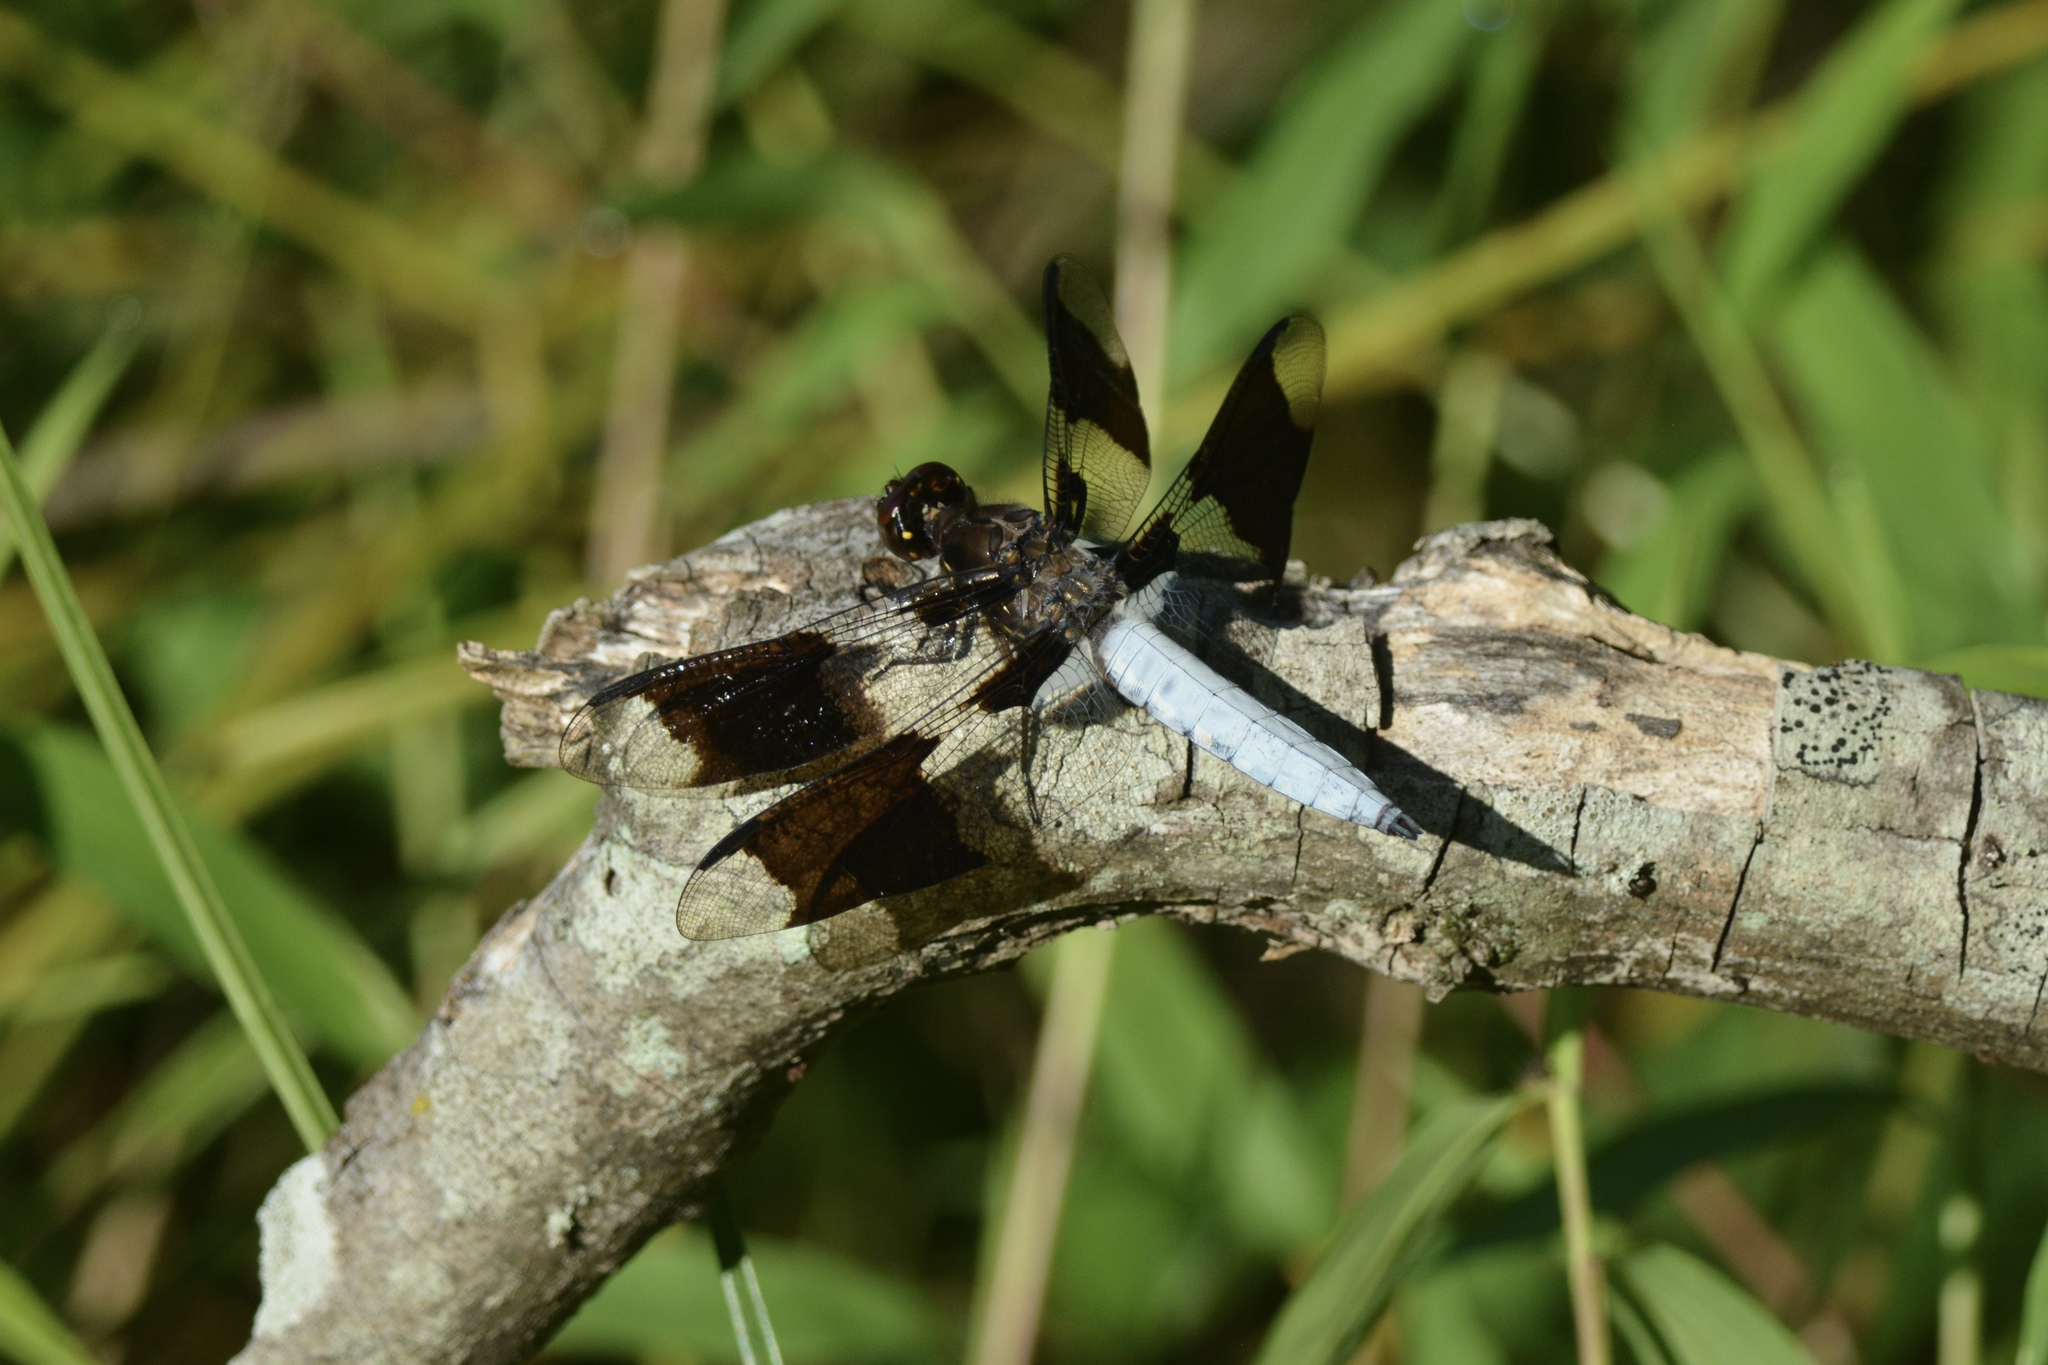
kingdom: Animalia
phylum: Arthropoda
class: Insecta
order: Odonata
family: Libellulidae
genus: Plathemis
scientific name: Plathemis lydia
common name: Common whitetail
